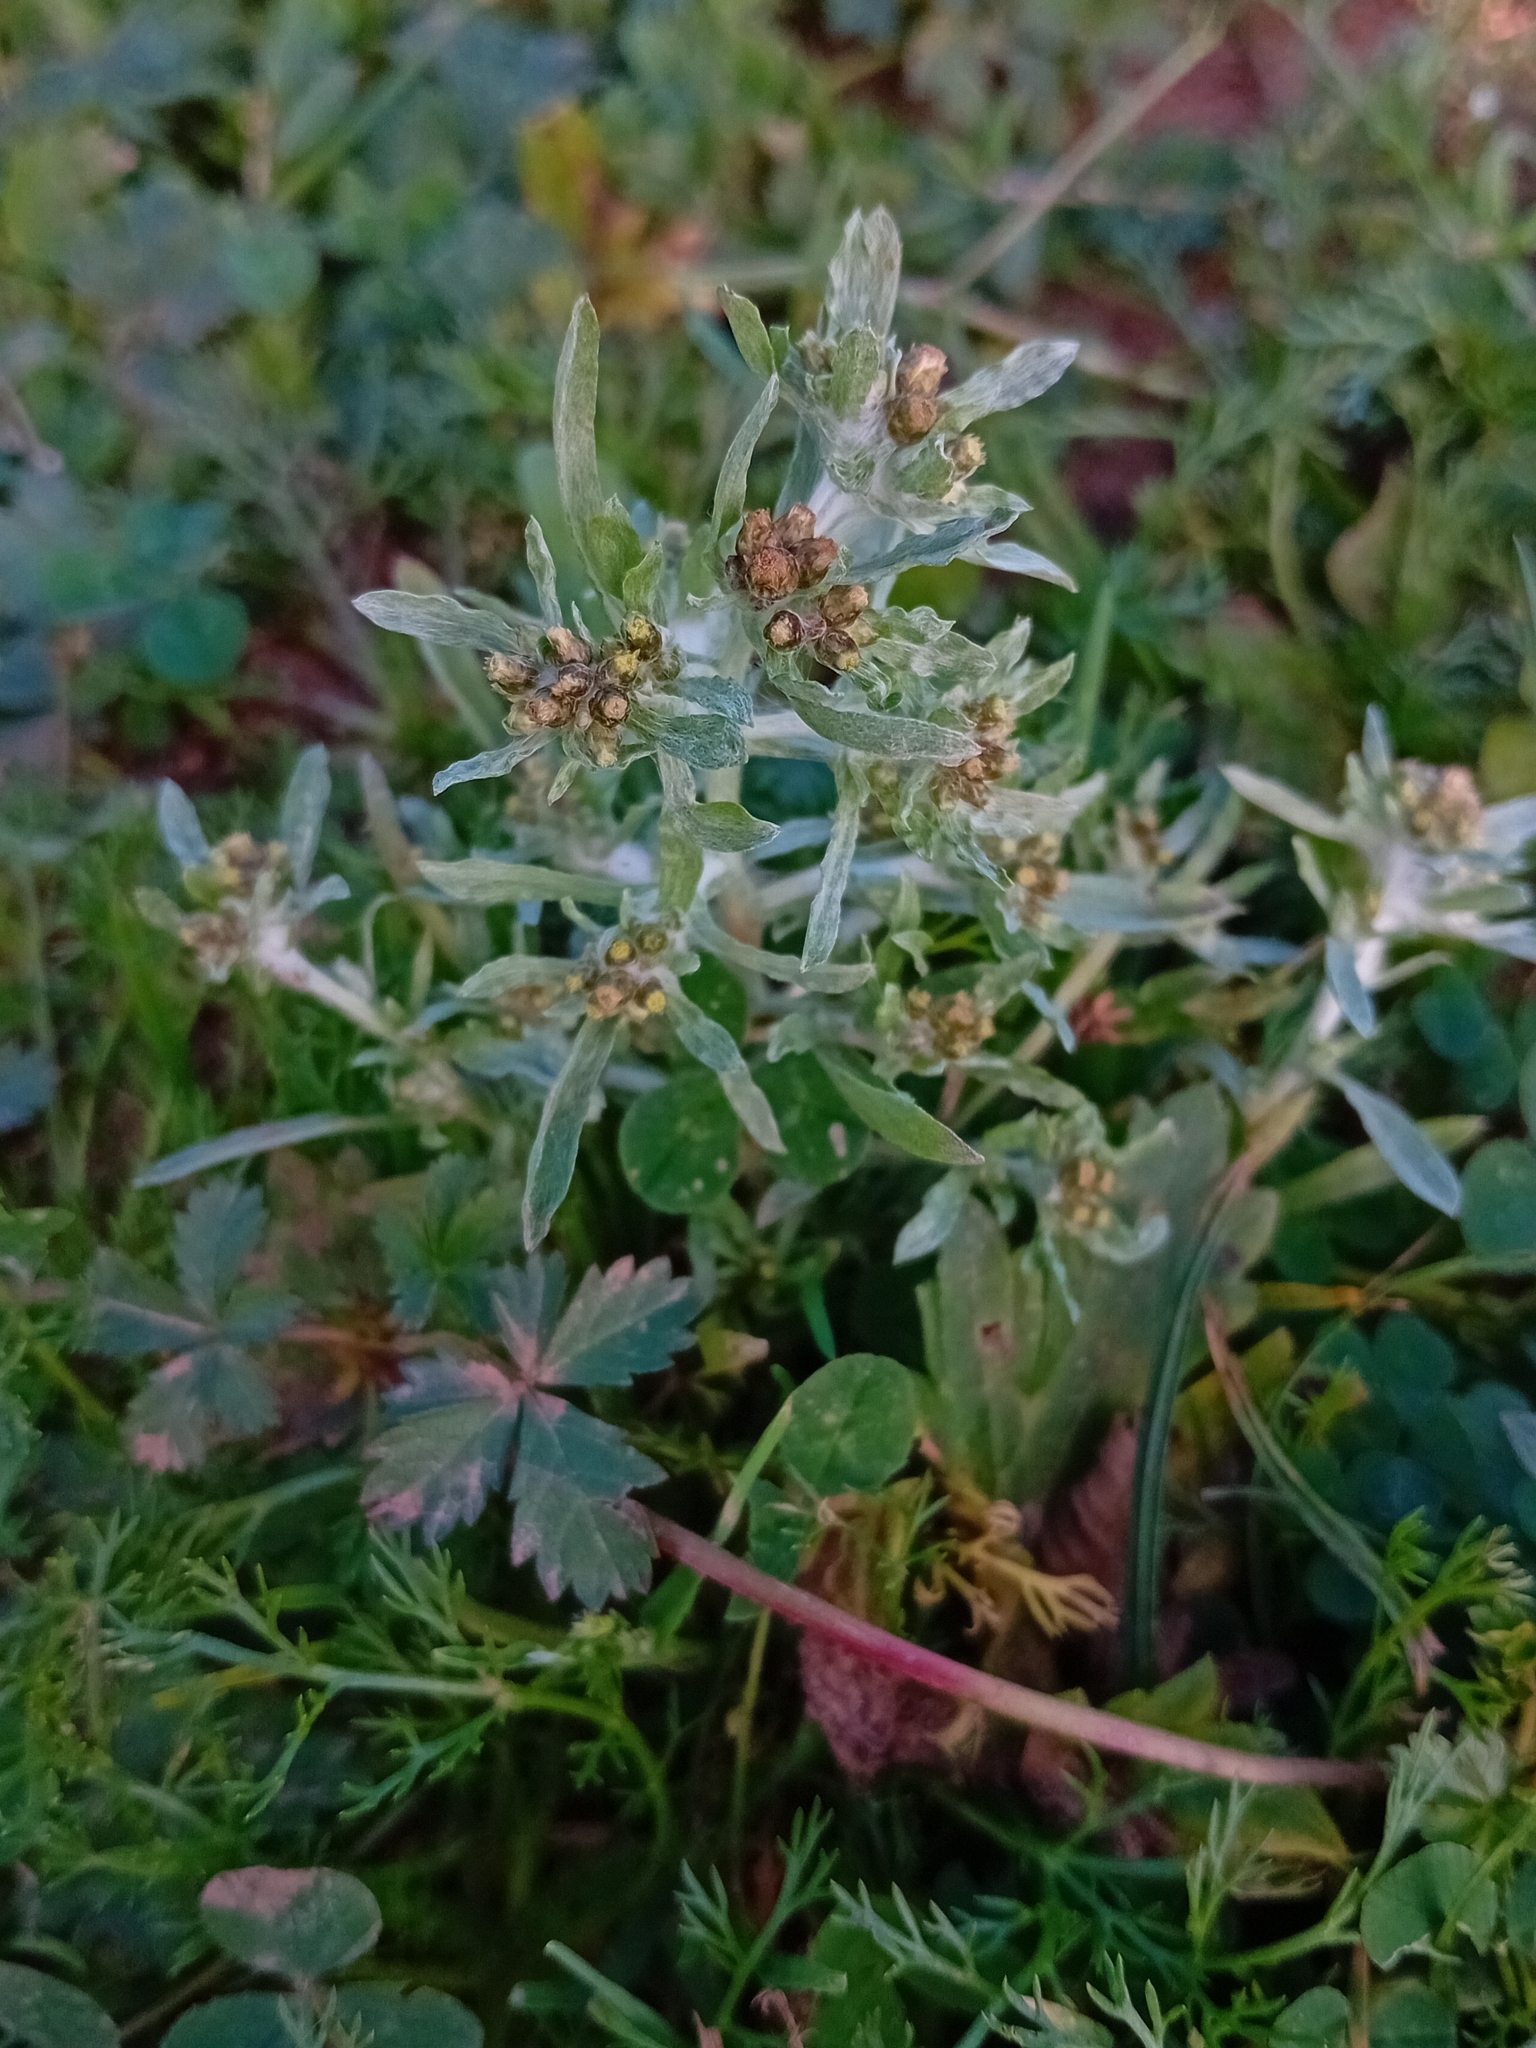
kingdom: Plantae
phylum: Tracheophyta
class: Magnoliopsida
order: Asterales
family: Asteraceae
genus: Gnaphalium
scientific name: Gnaphalium uliginosum
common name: Marsh cudweed
